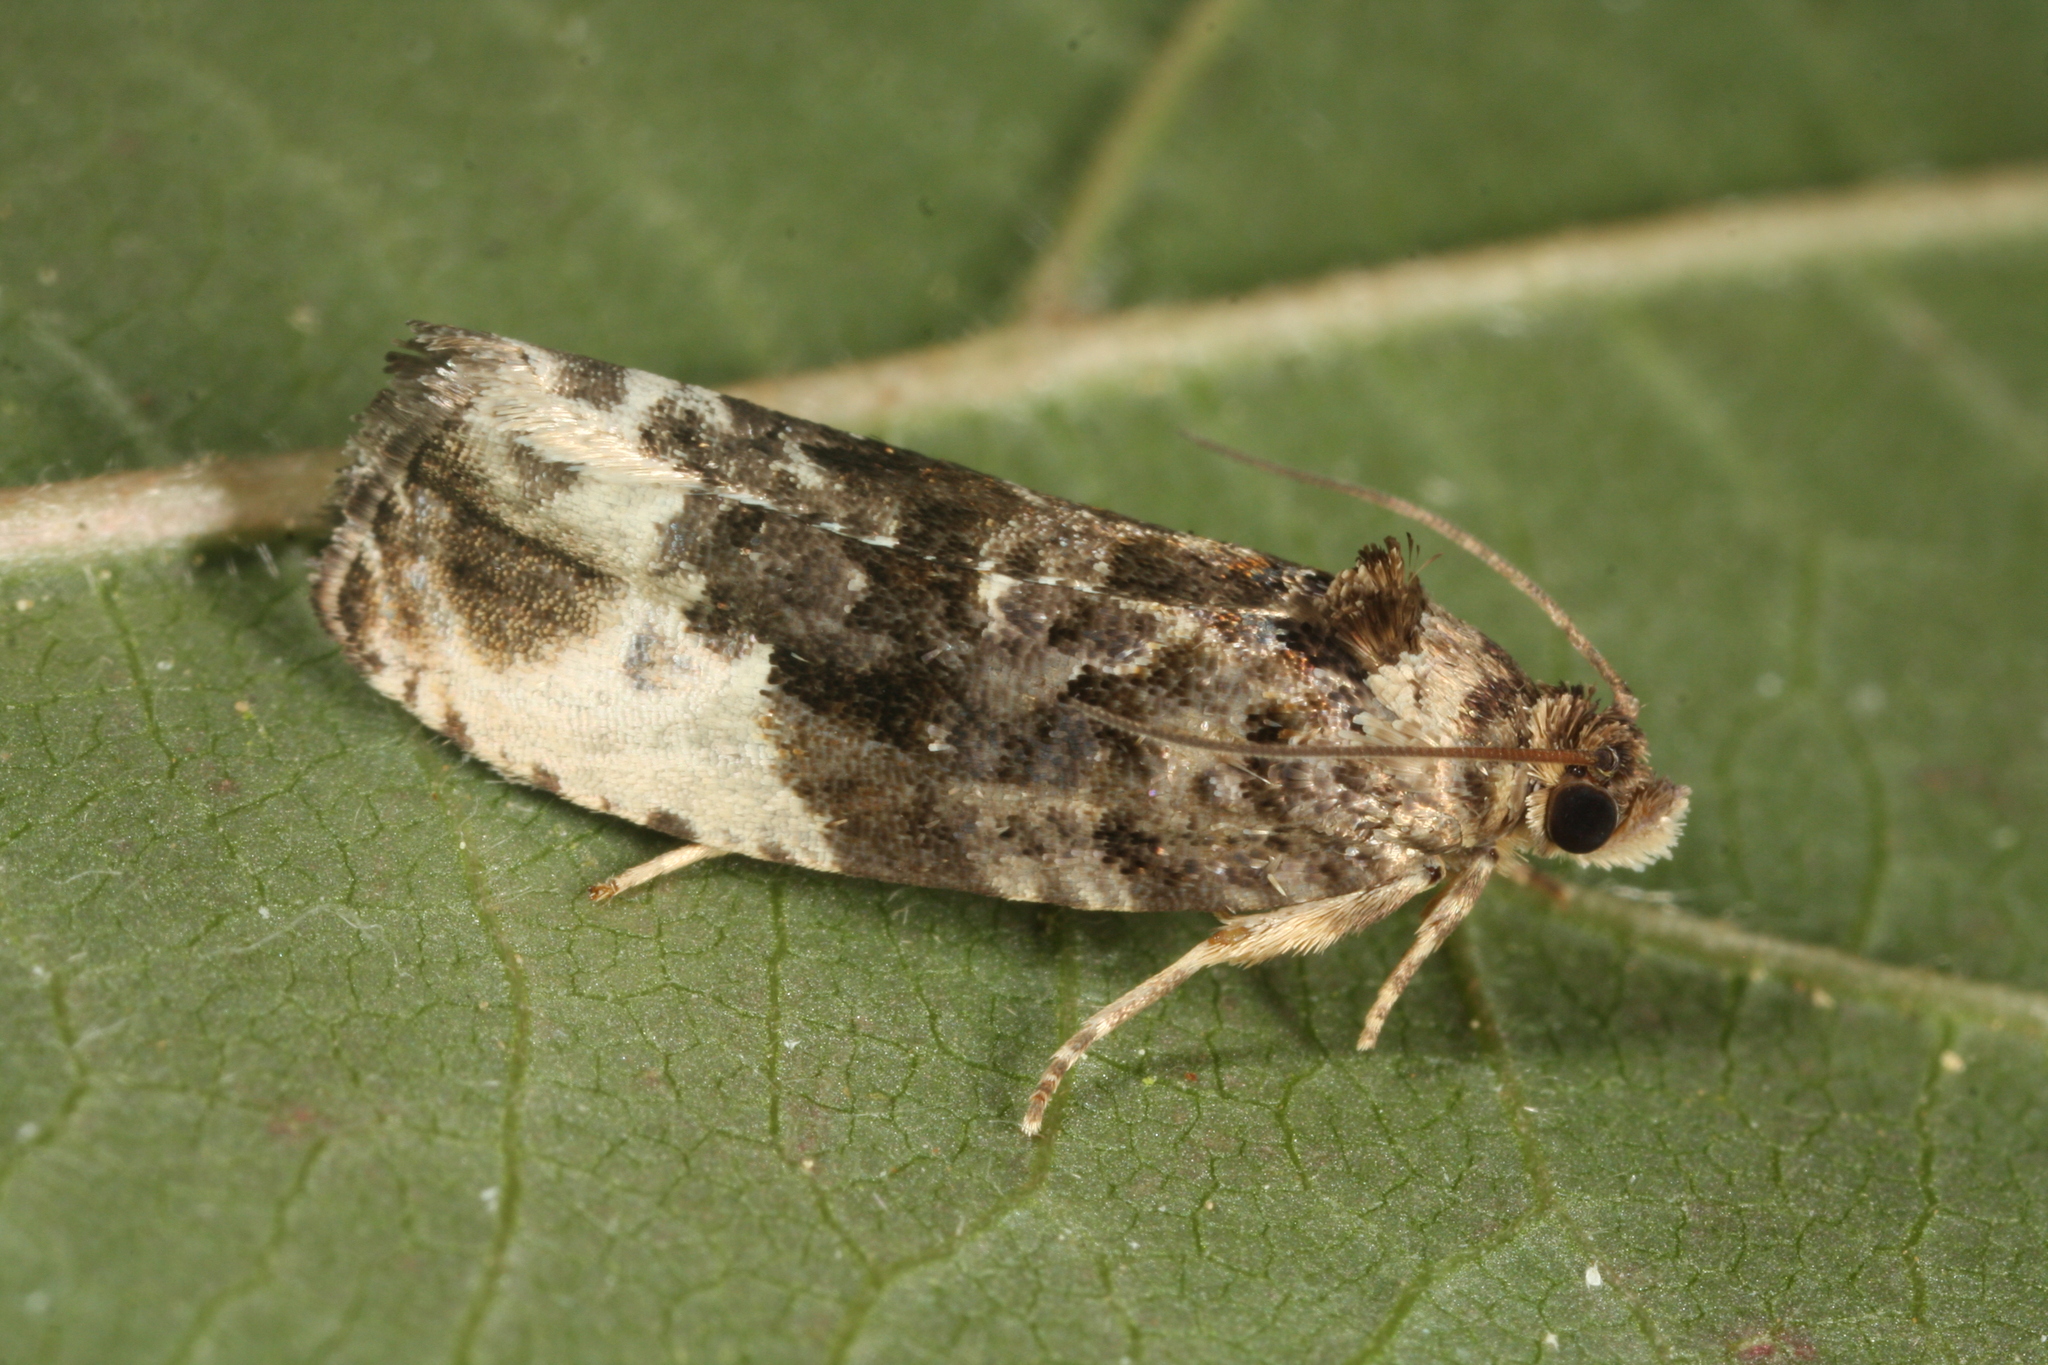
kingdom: Animalia
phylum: Arthropoda
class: Insecta
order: Lepidoptera
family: Tortricidae
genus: Hedya
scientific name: Hedya nubiferana
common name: Marbled orchard tortrix
